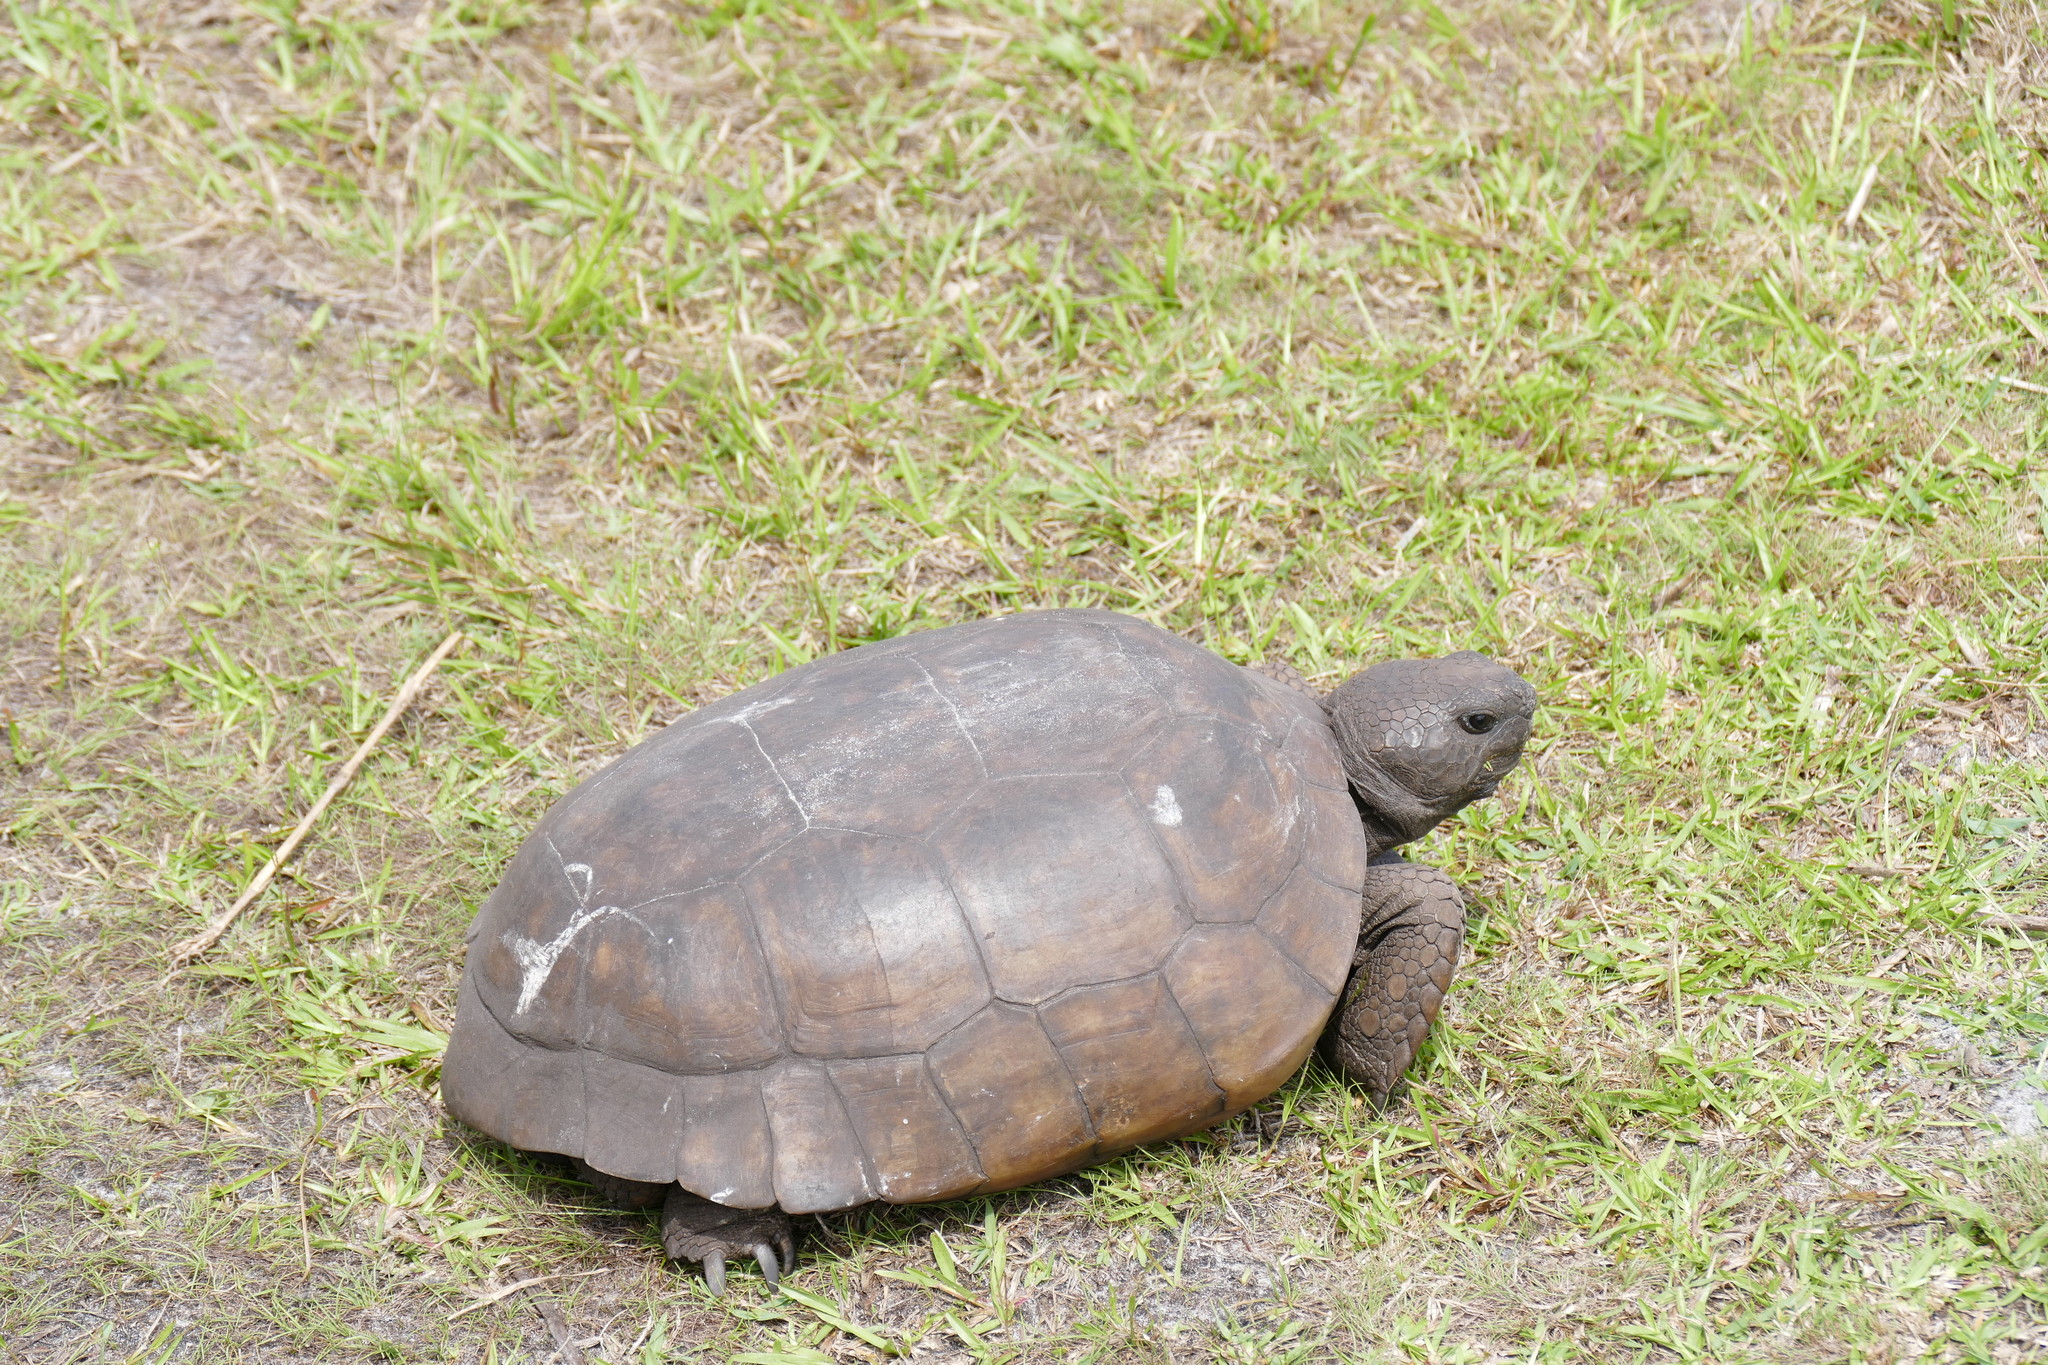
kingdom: Animalia
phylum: Chordata
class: Testudines
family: Testudinidae
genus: Gopherus
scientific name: Gopherus polyphemus
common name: Florida gopher tortoise
